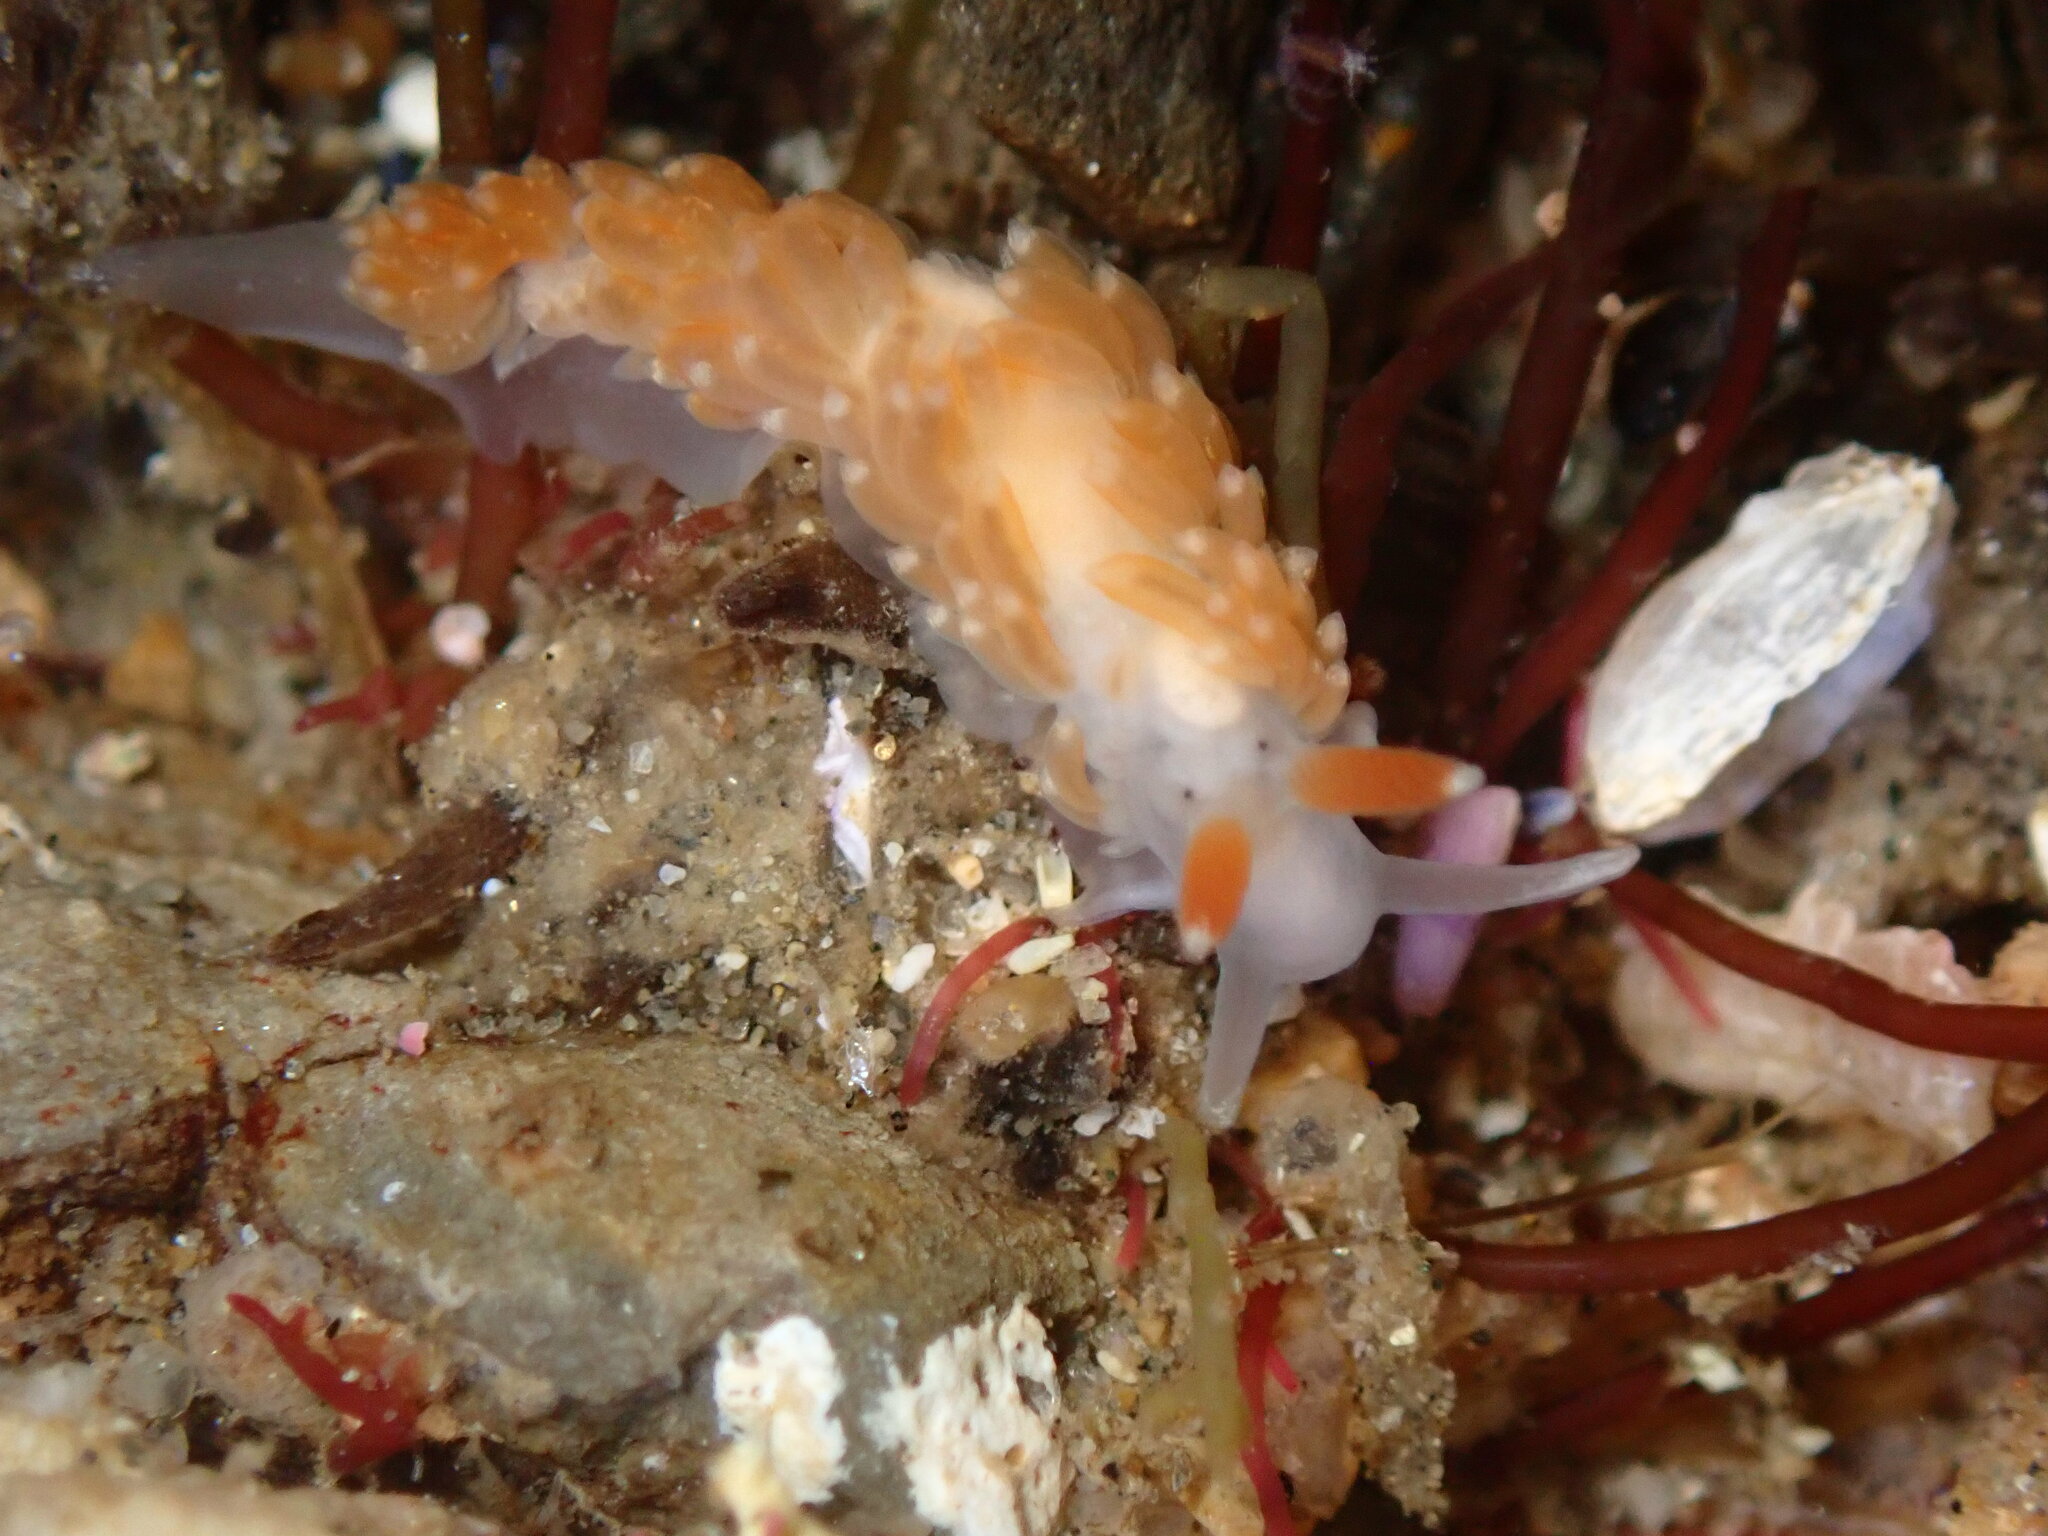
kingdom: Animalia
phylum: Mollusca
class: Gastropoda
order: Nudibranchia
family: Aeolidiidae
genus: Anteaeolidiella
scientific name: Anteaeolidiella oliviae
